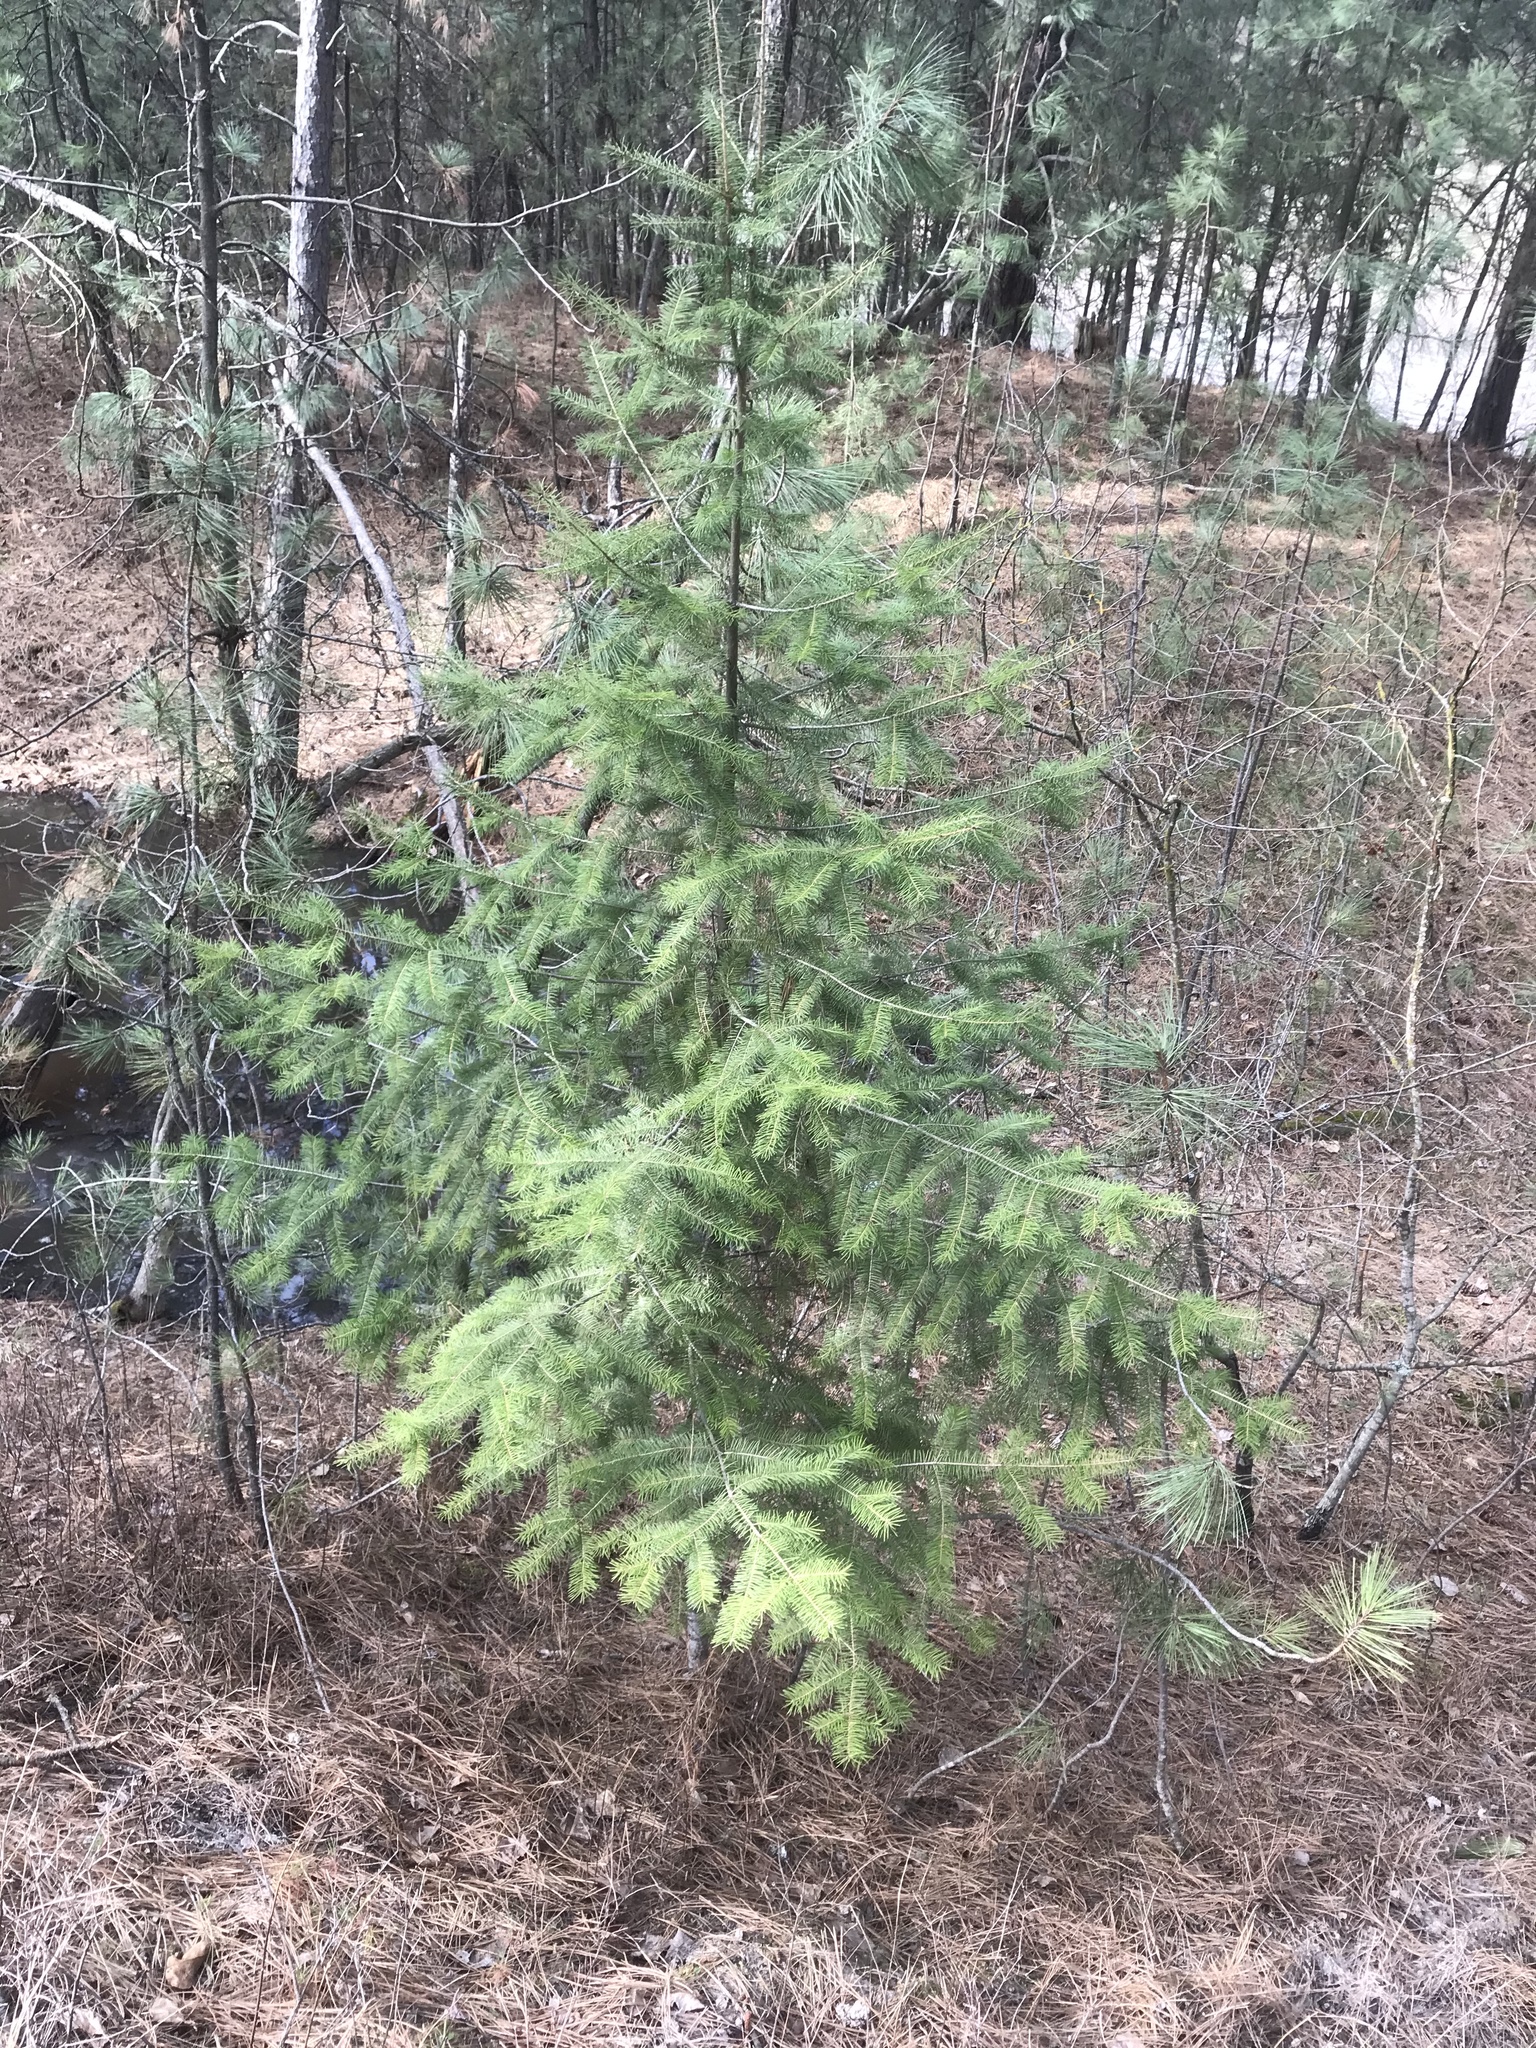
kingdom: Plantae
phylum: Tracheophyta
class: Pinopsida
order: Pinales
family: Pinaceae
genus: Pseudotsuga
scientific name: Pseudotsuga menziesii
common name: Douglas fir
